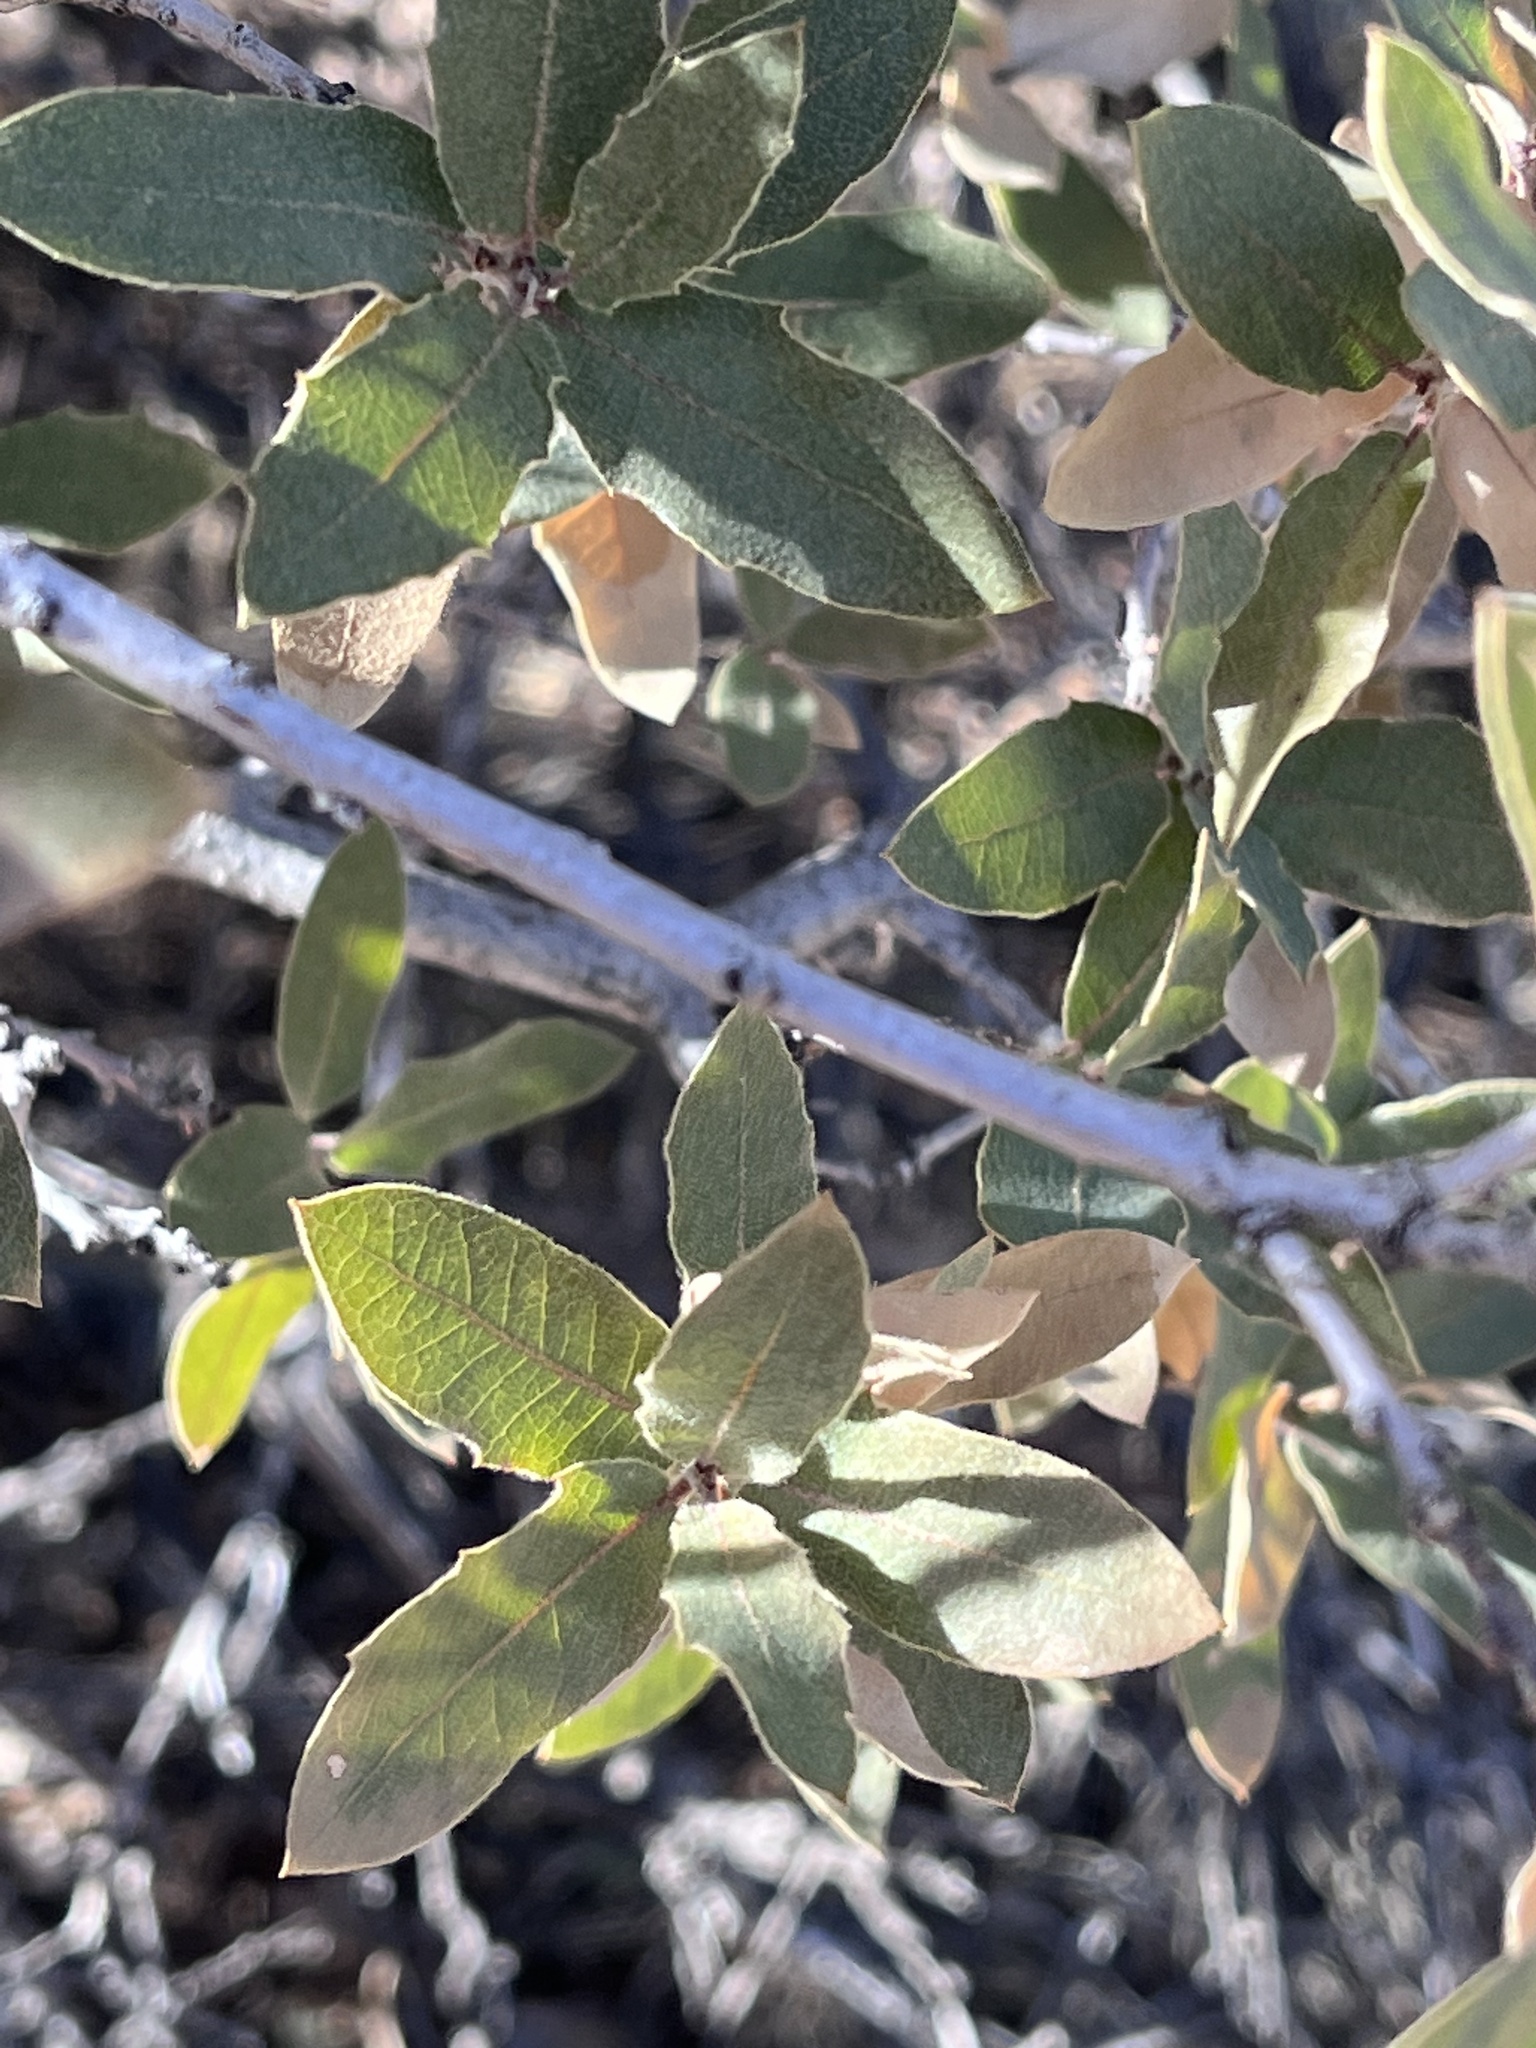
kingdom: Plantae
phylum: Tracheophyta
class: Magnoliopsida
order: Fagales
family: Fagaceae
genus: Quercus
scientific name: Quercus grisea
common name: Gray oak
